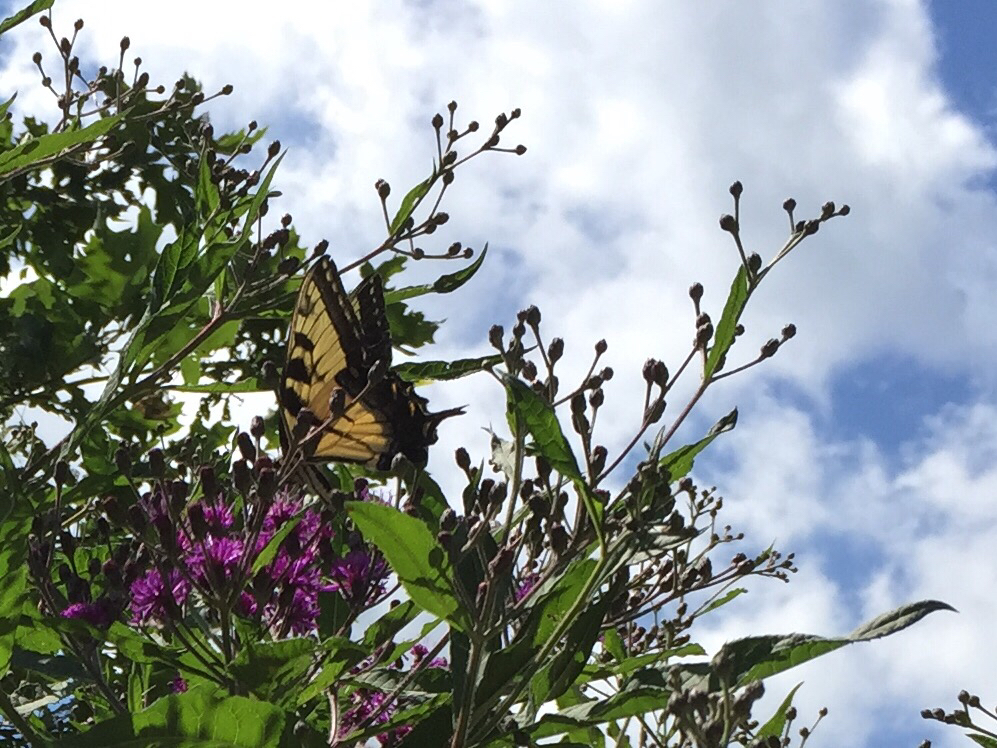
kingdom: Animalia
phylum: Arthropoda
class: Insecta
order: Lepidoptera
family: Papilionidae
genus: Papilio
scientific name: Papilio glaucus
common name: Tiger swallowtail
